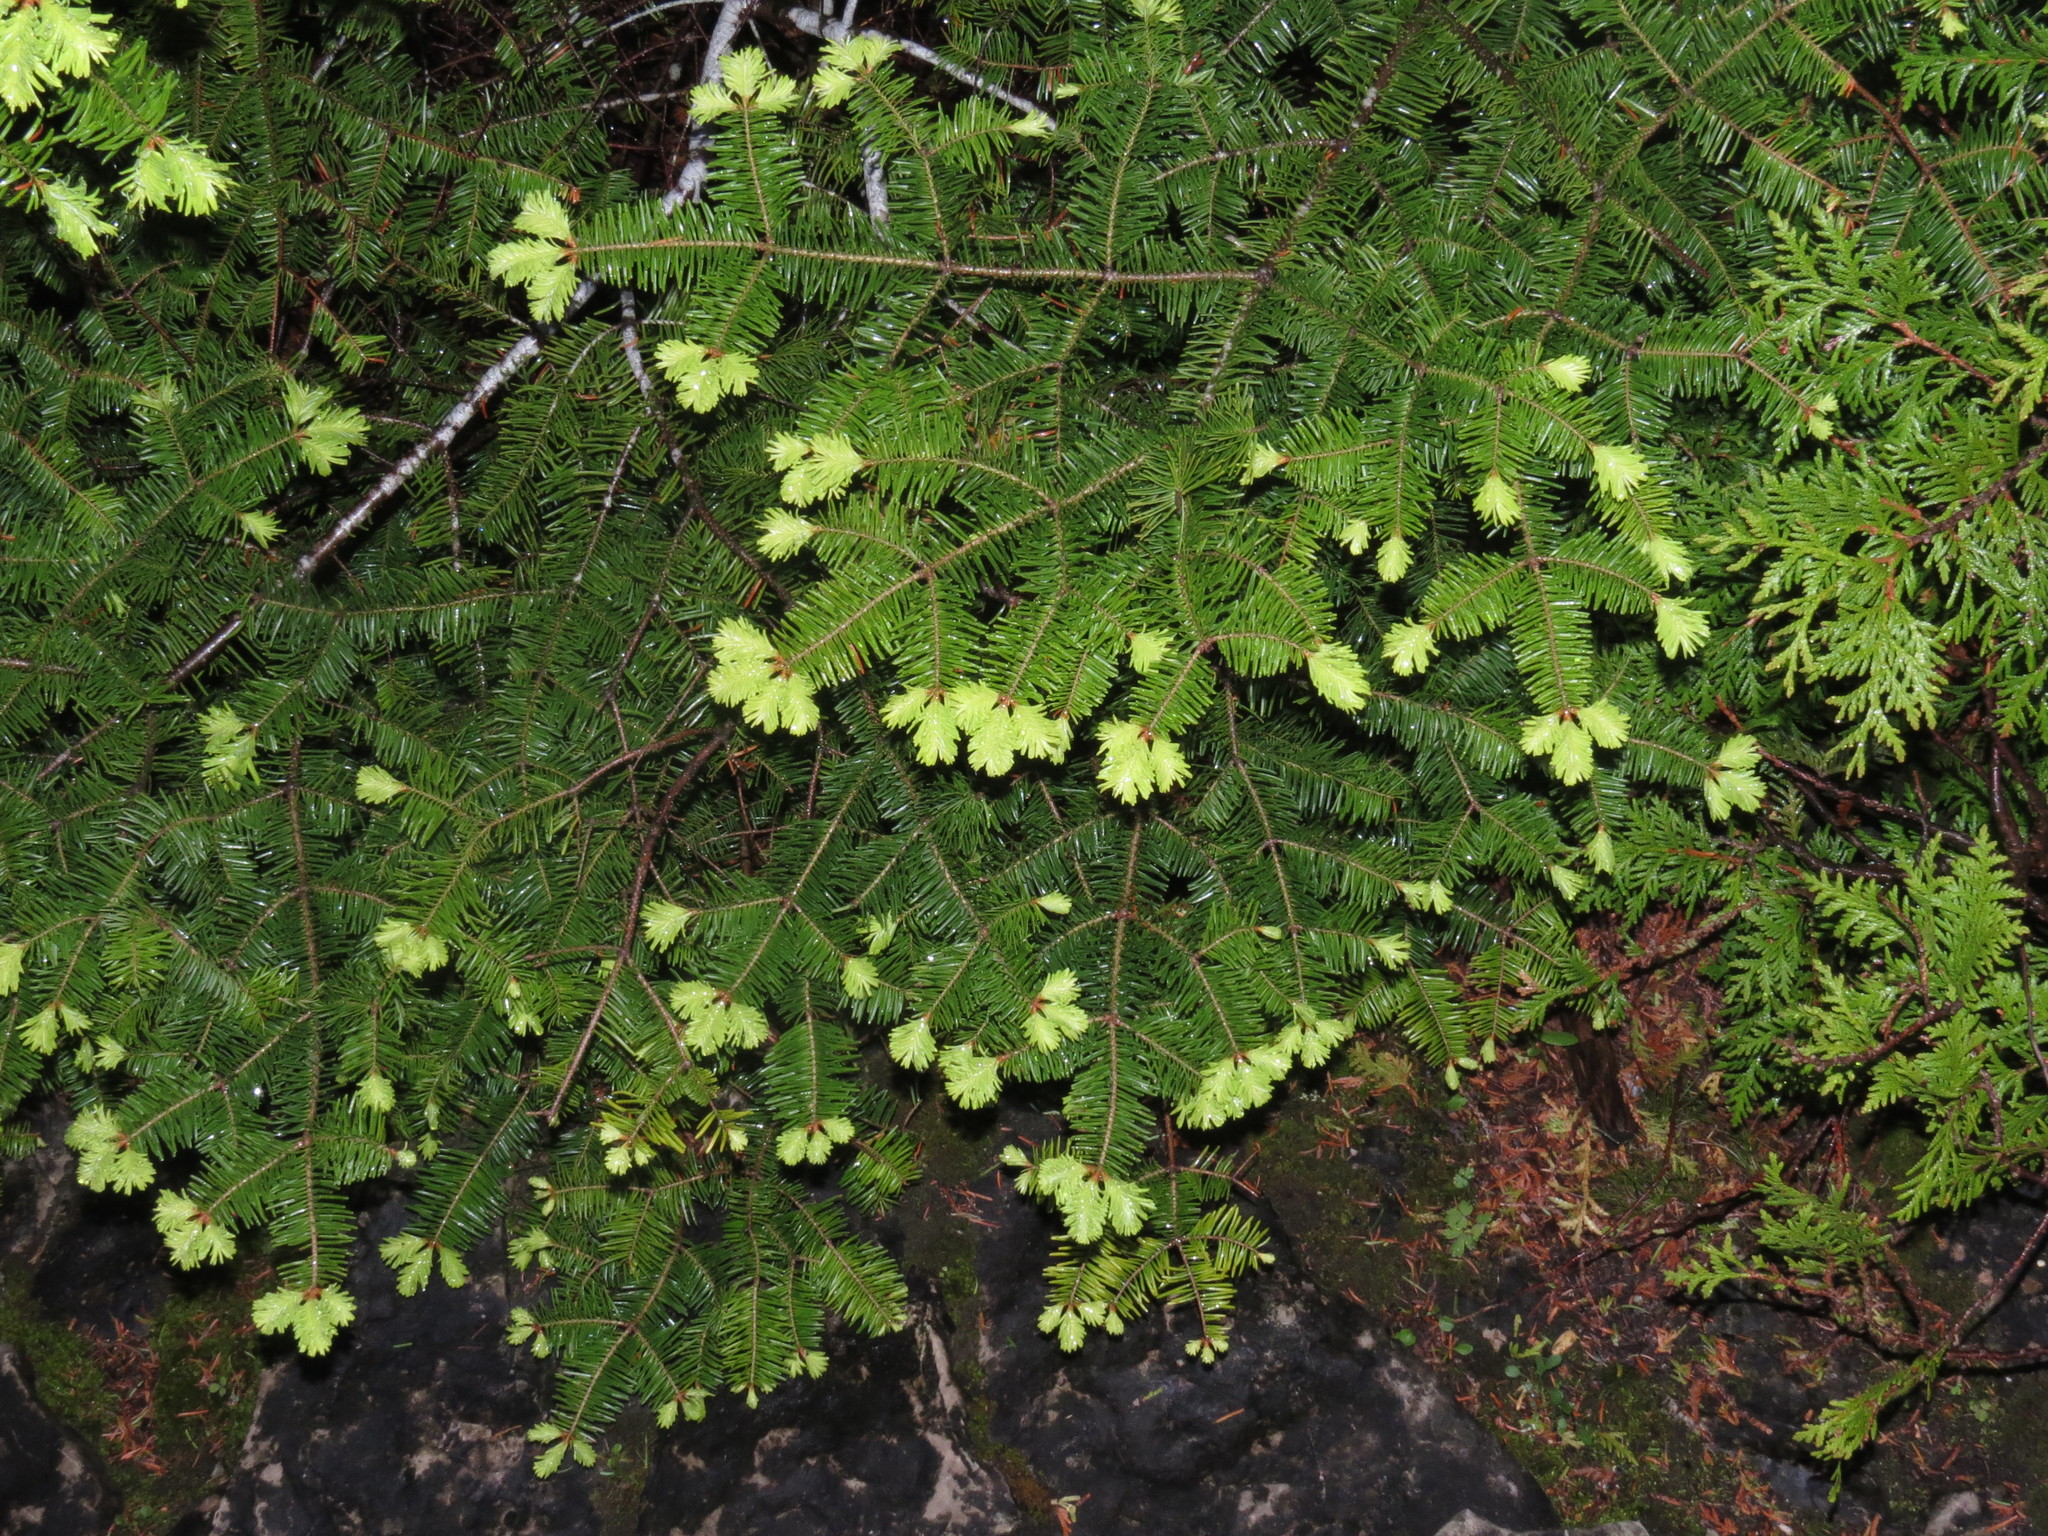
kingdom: Plantae
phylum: Tracheophyta
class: Pinopsida
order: Pinales
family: Pinaceae
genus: Abies
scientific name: Abies balsamea
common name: Balsam fir
